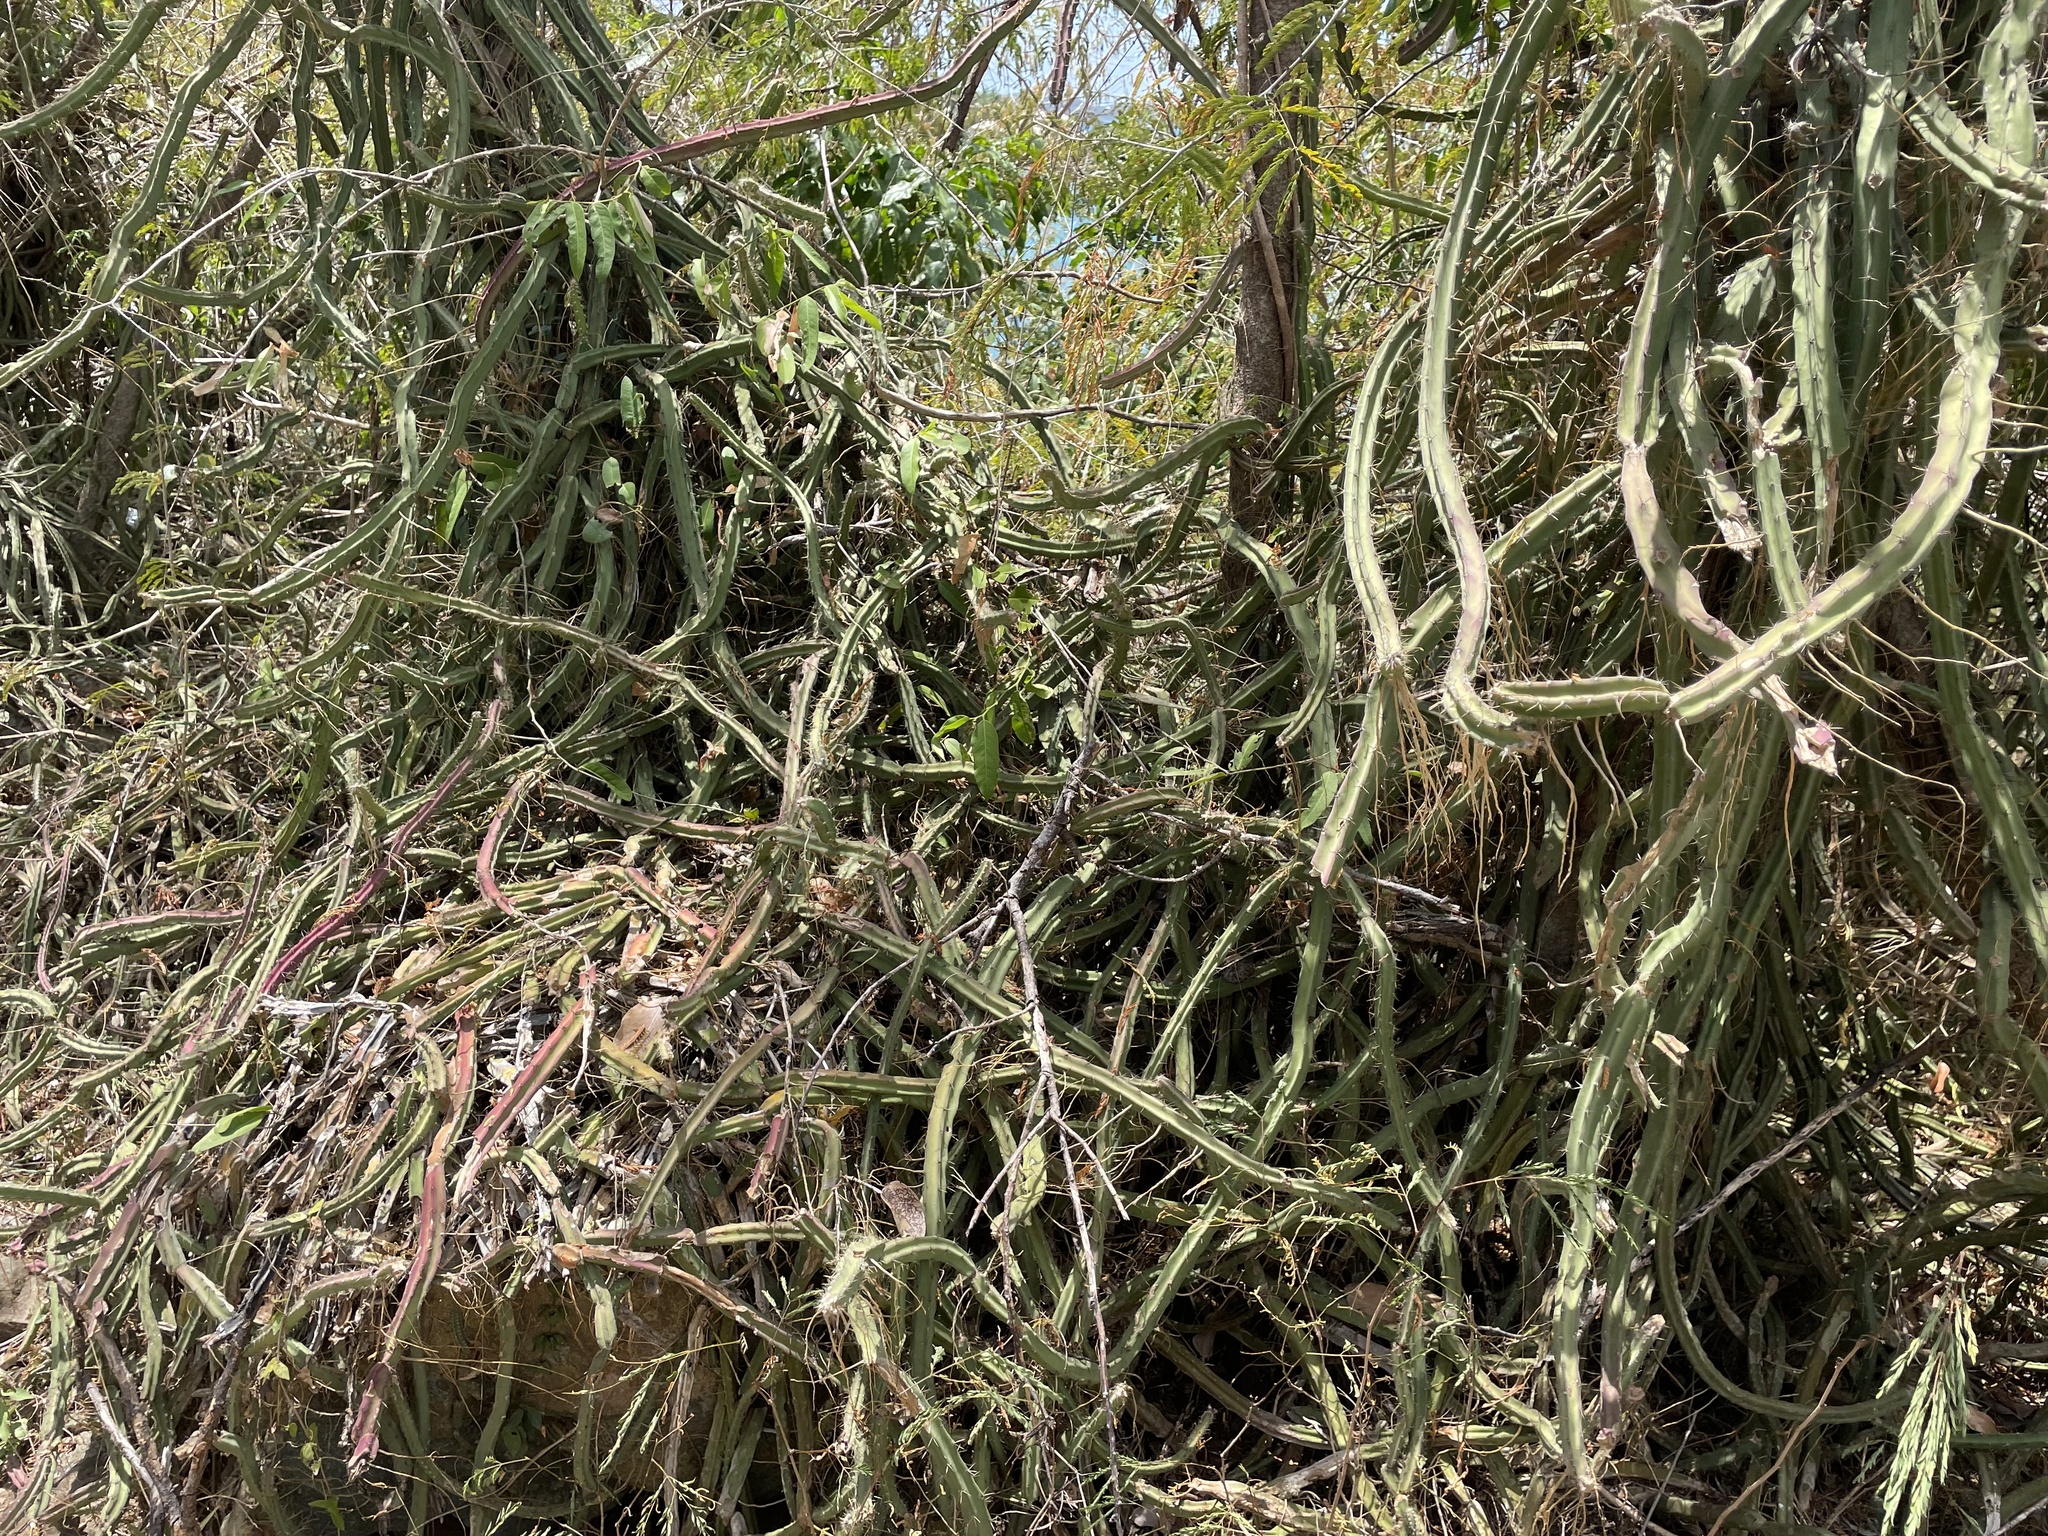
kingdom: Plantae
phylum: Tracheophyta
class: Magnoliopsida
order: Caryophyllales
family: Cactaceae
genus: Selenicereus
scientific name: Selenicereus grandiflorus
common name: Queen of the night
